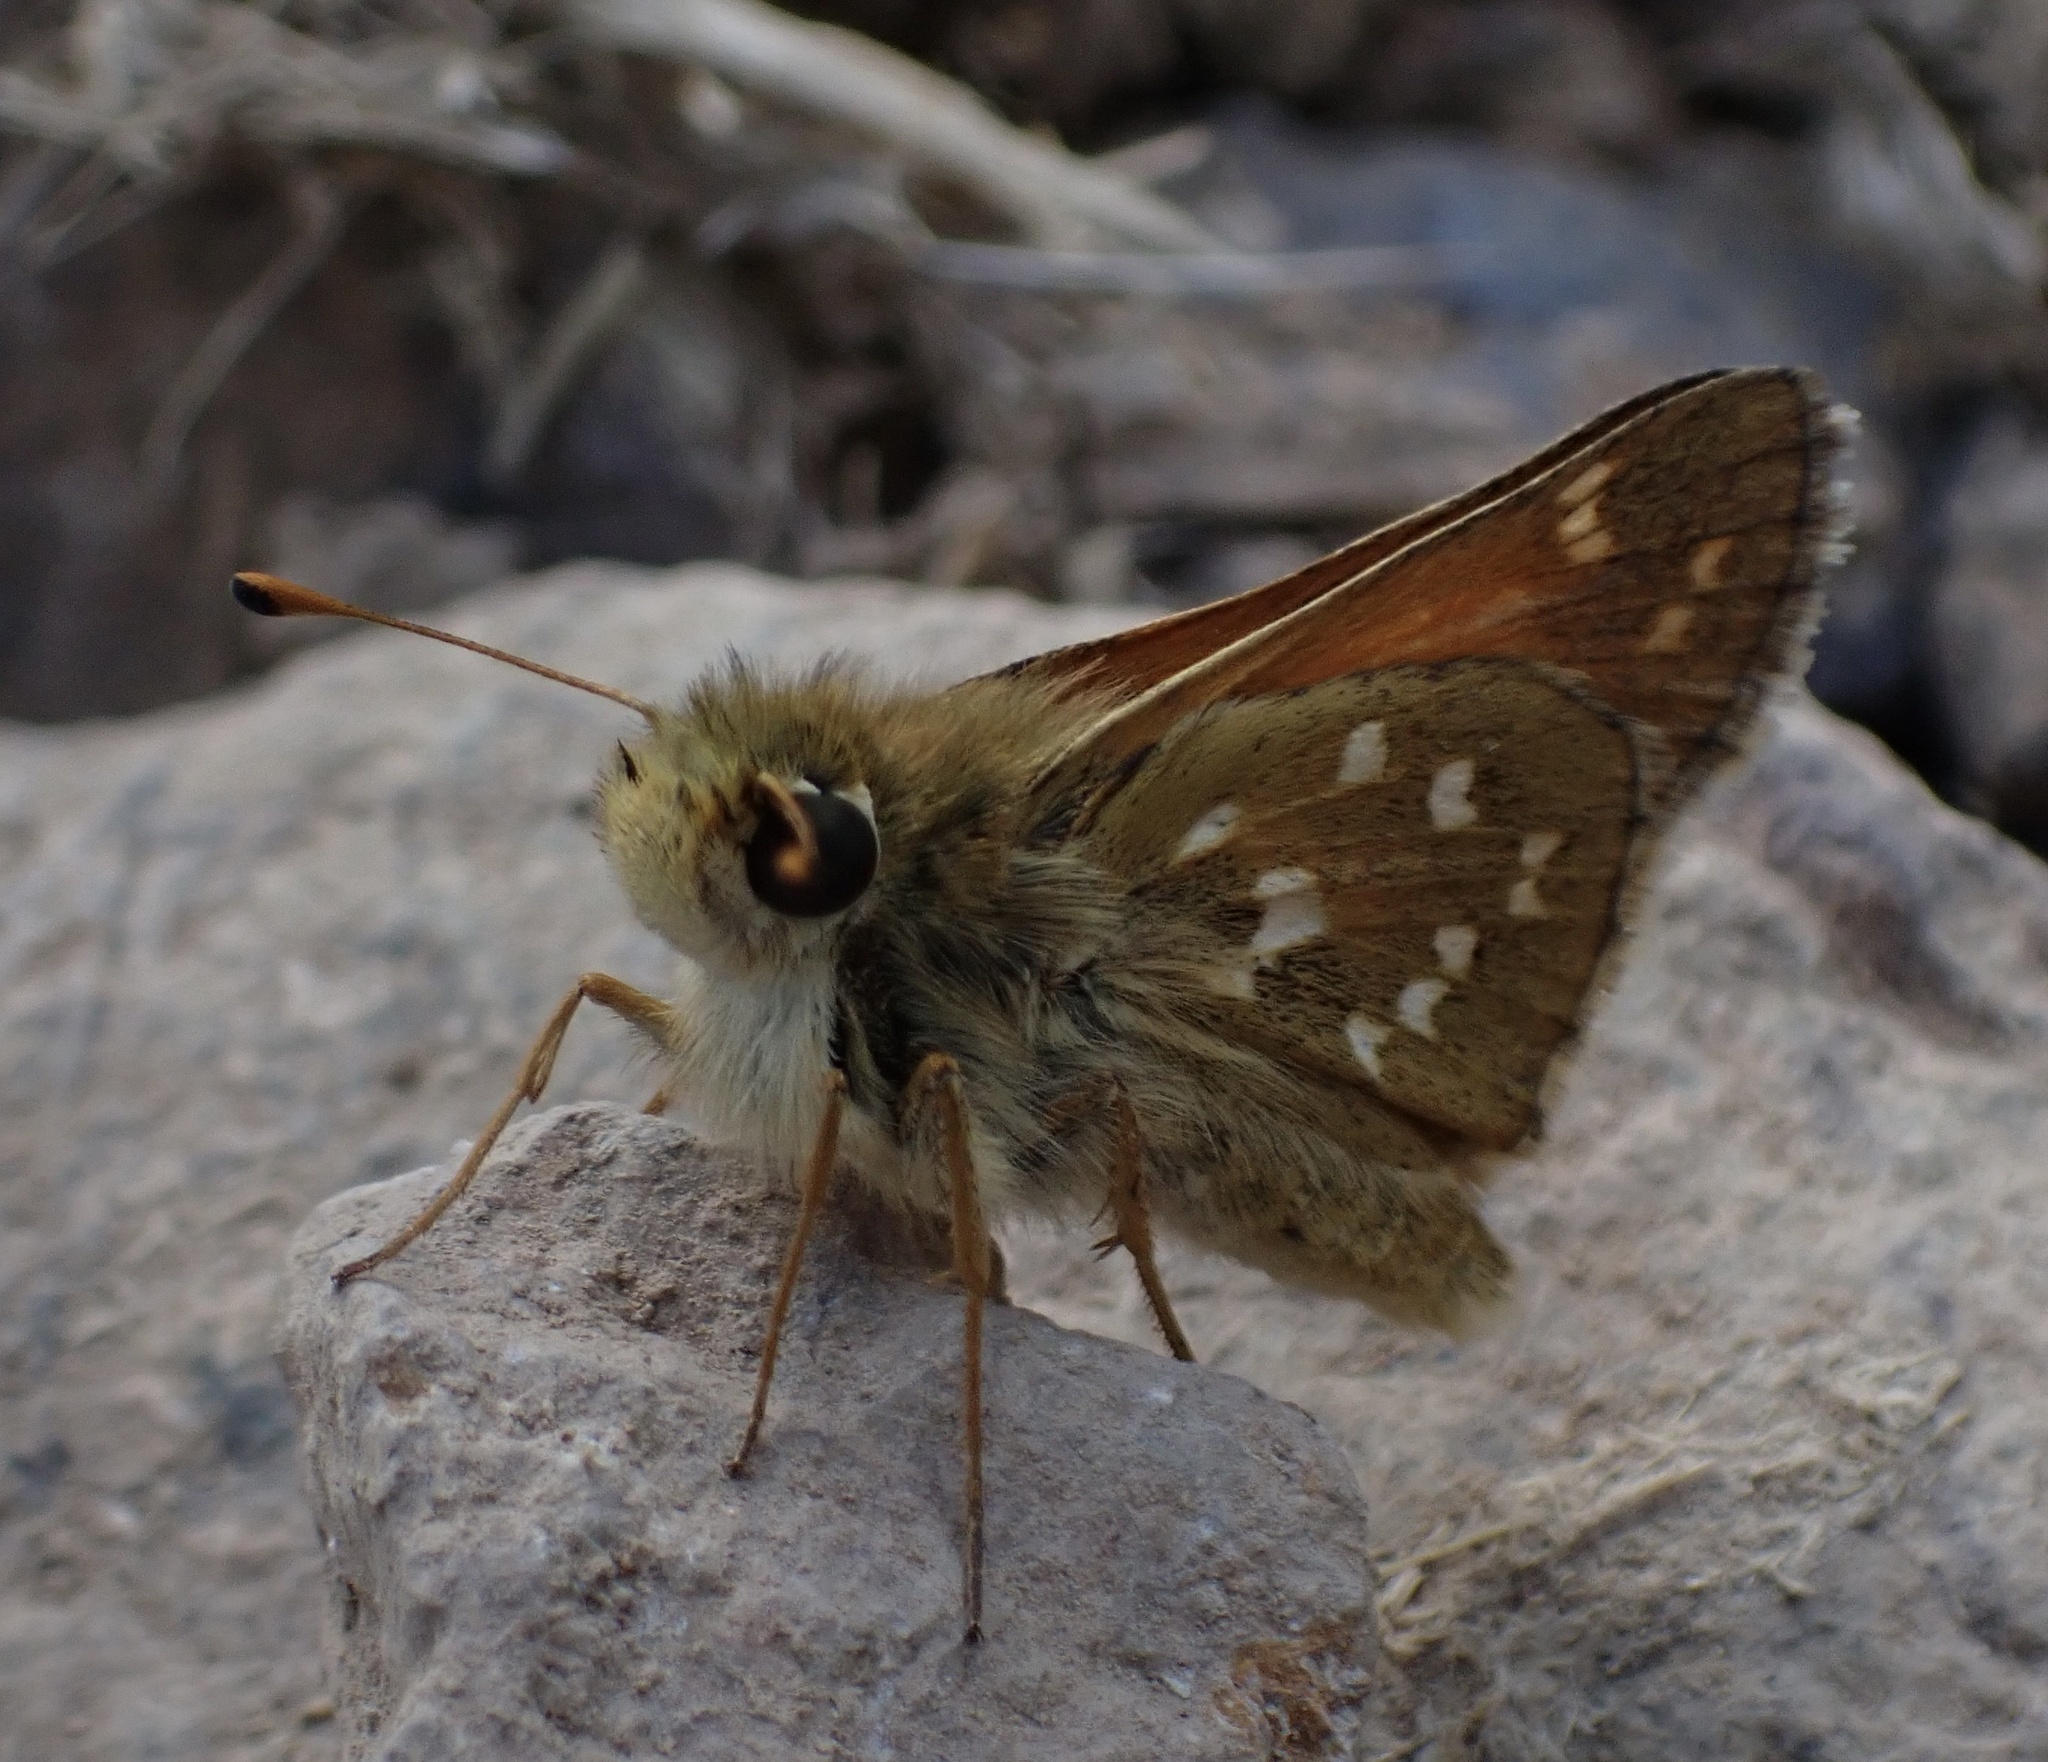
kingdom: Animalia
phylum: Arthropoda
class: Insecta
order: Lepidoptera
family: Hesperiidae
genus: Hesperia
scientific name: Hesperia comma
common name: Common branded skipper
